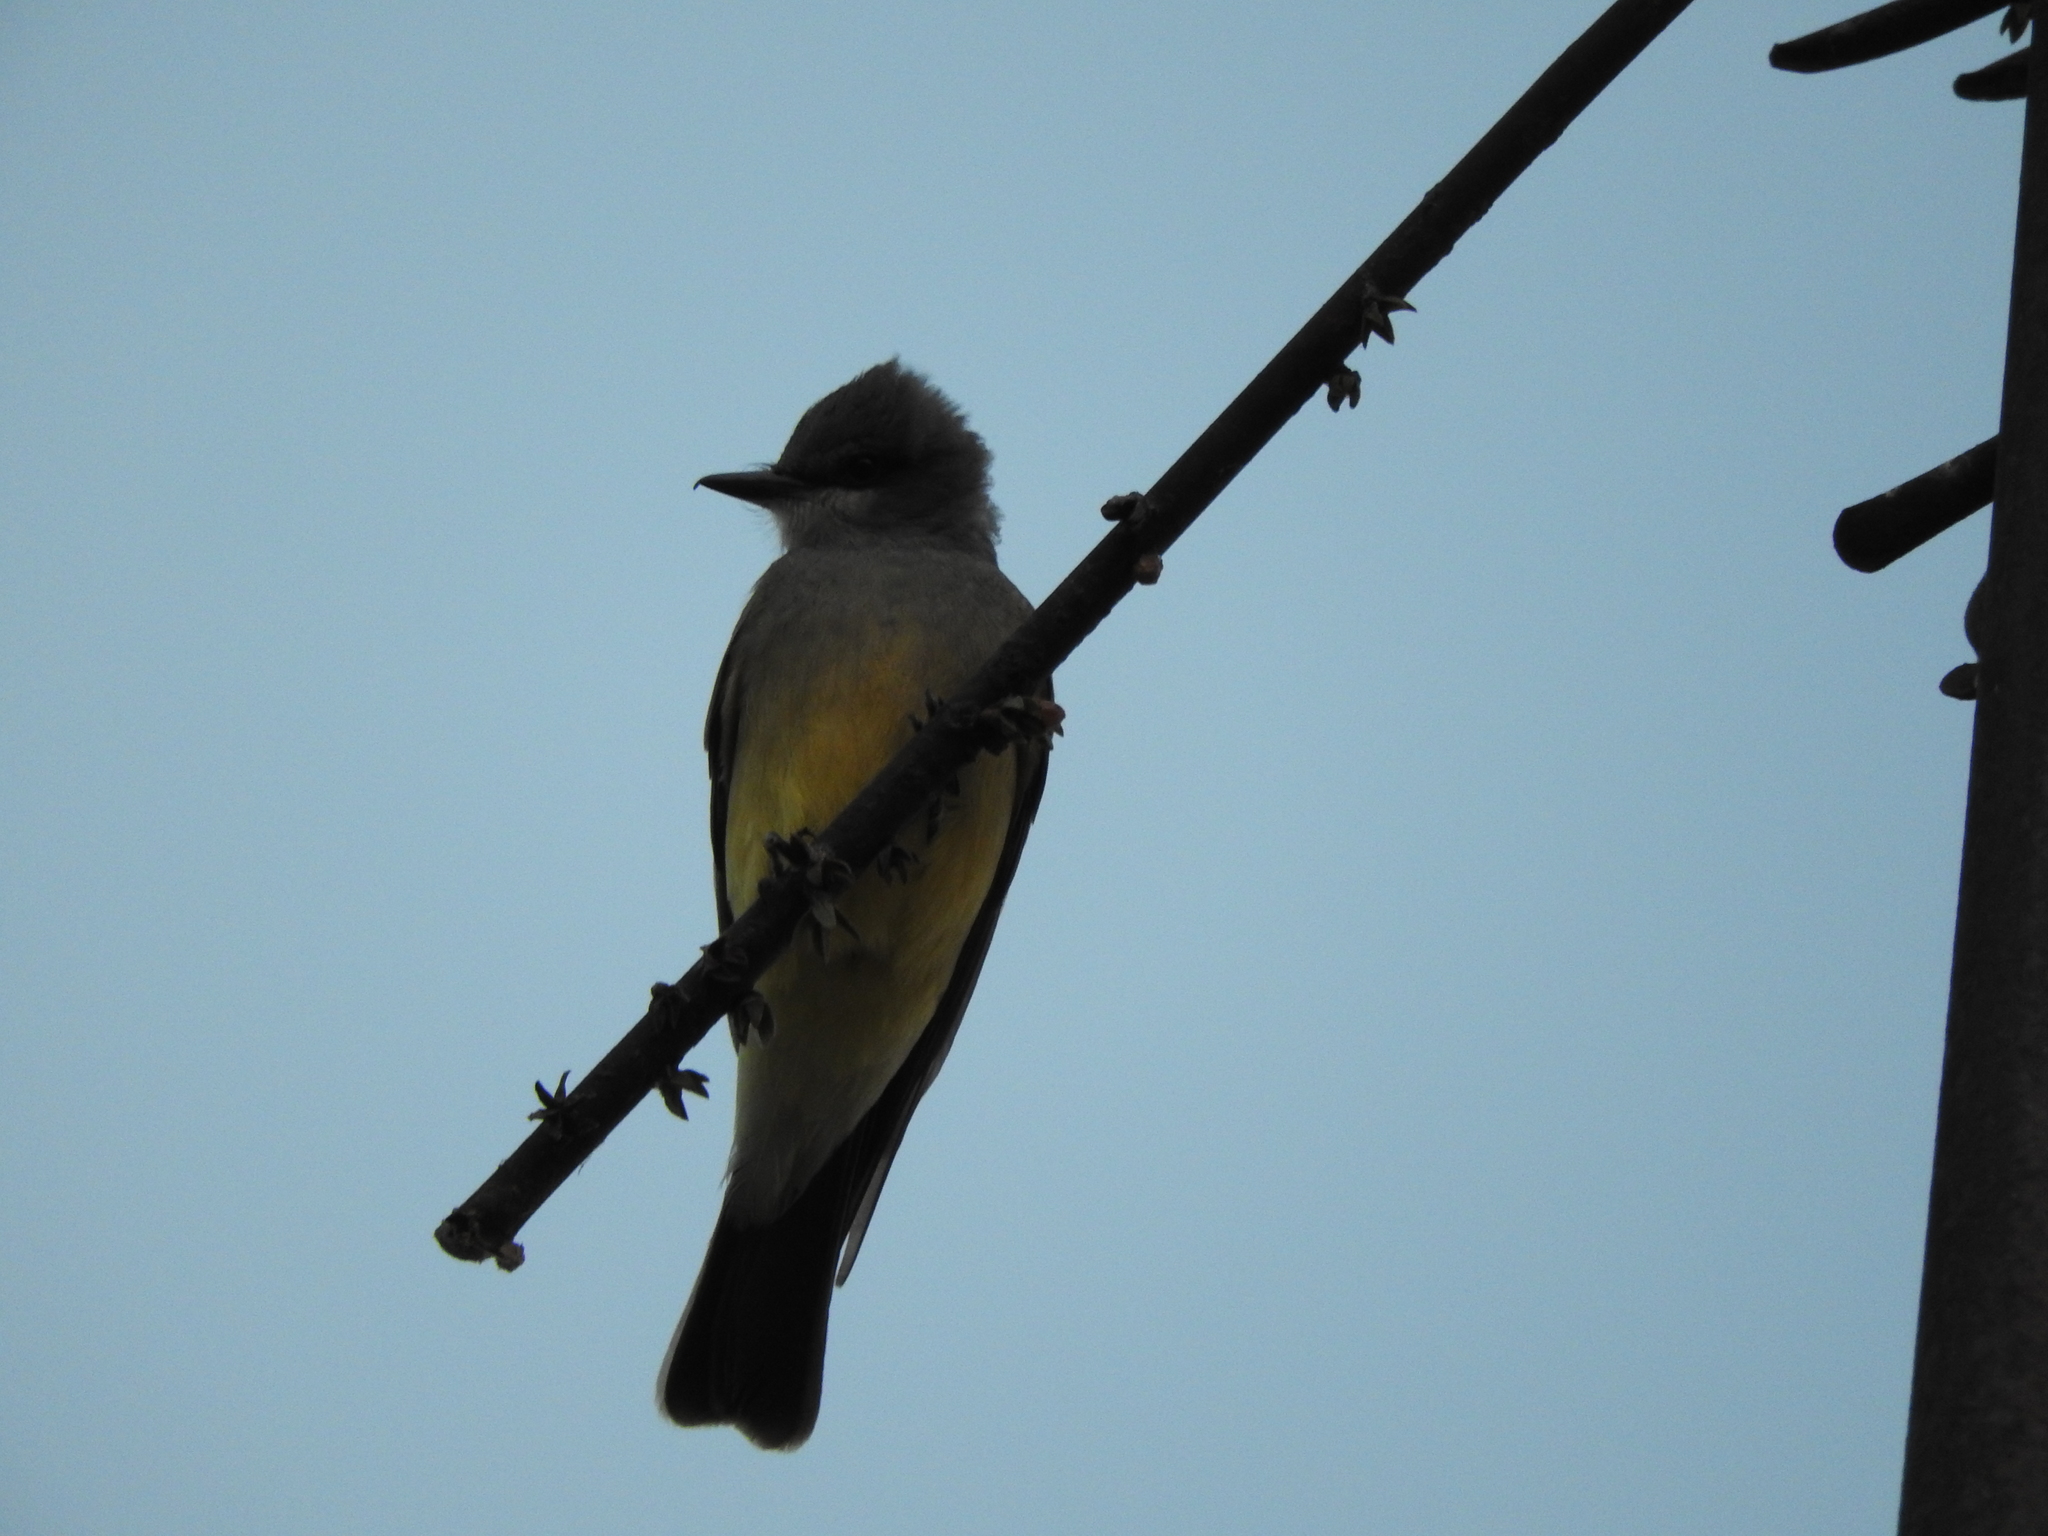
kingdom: Animalia
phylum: Chordata
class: Aves
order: Passeriformes
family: Tyrannidae
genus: Tyrannus
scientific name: Tyrannus vociferans
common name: Cassin's kingbird
